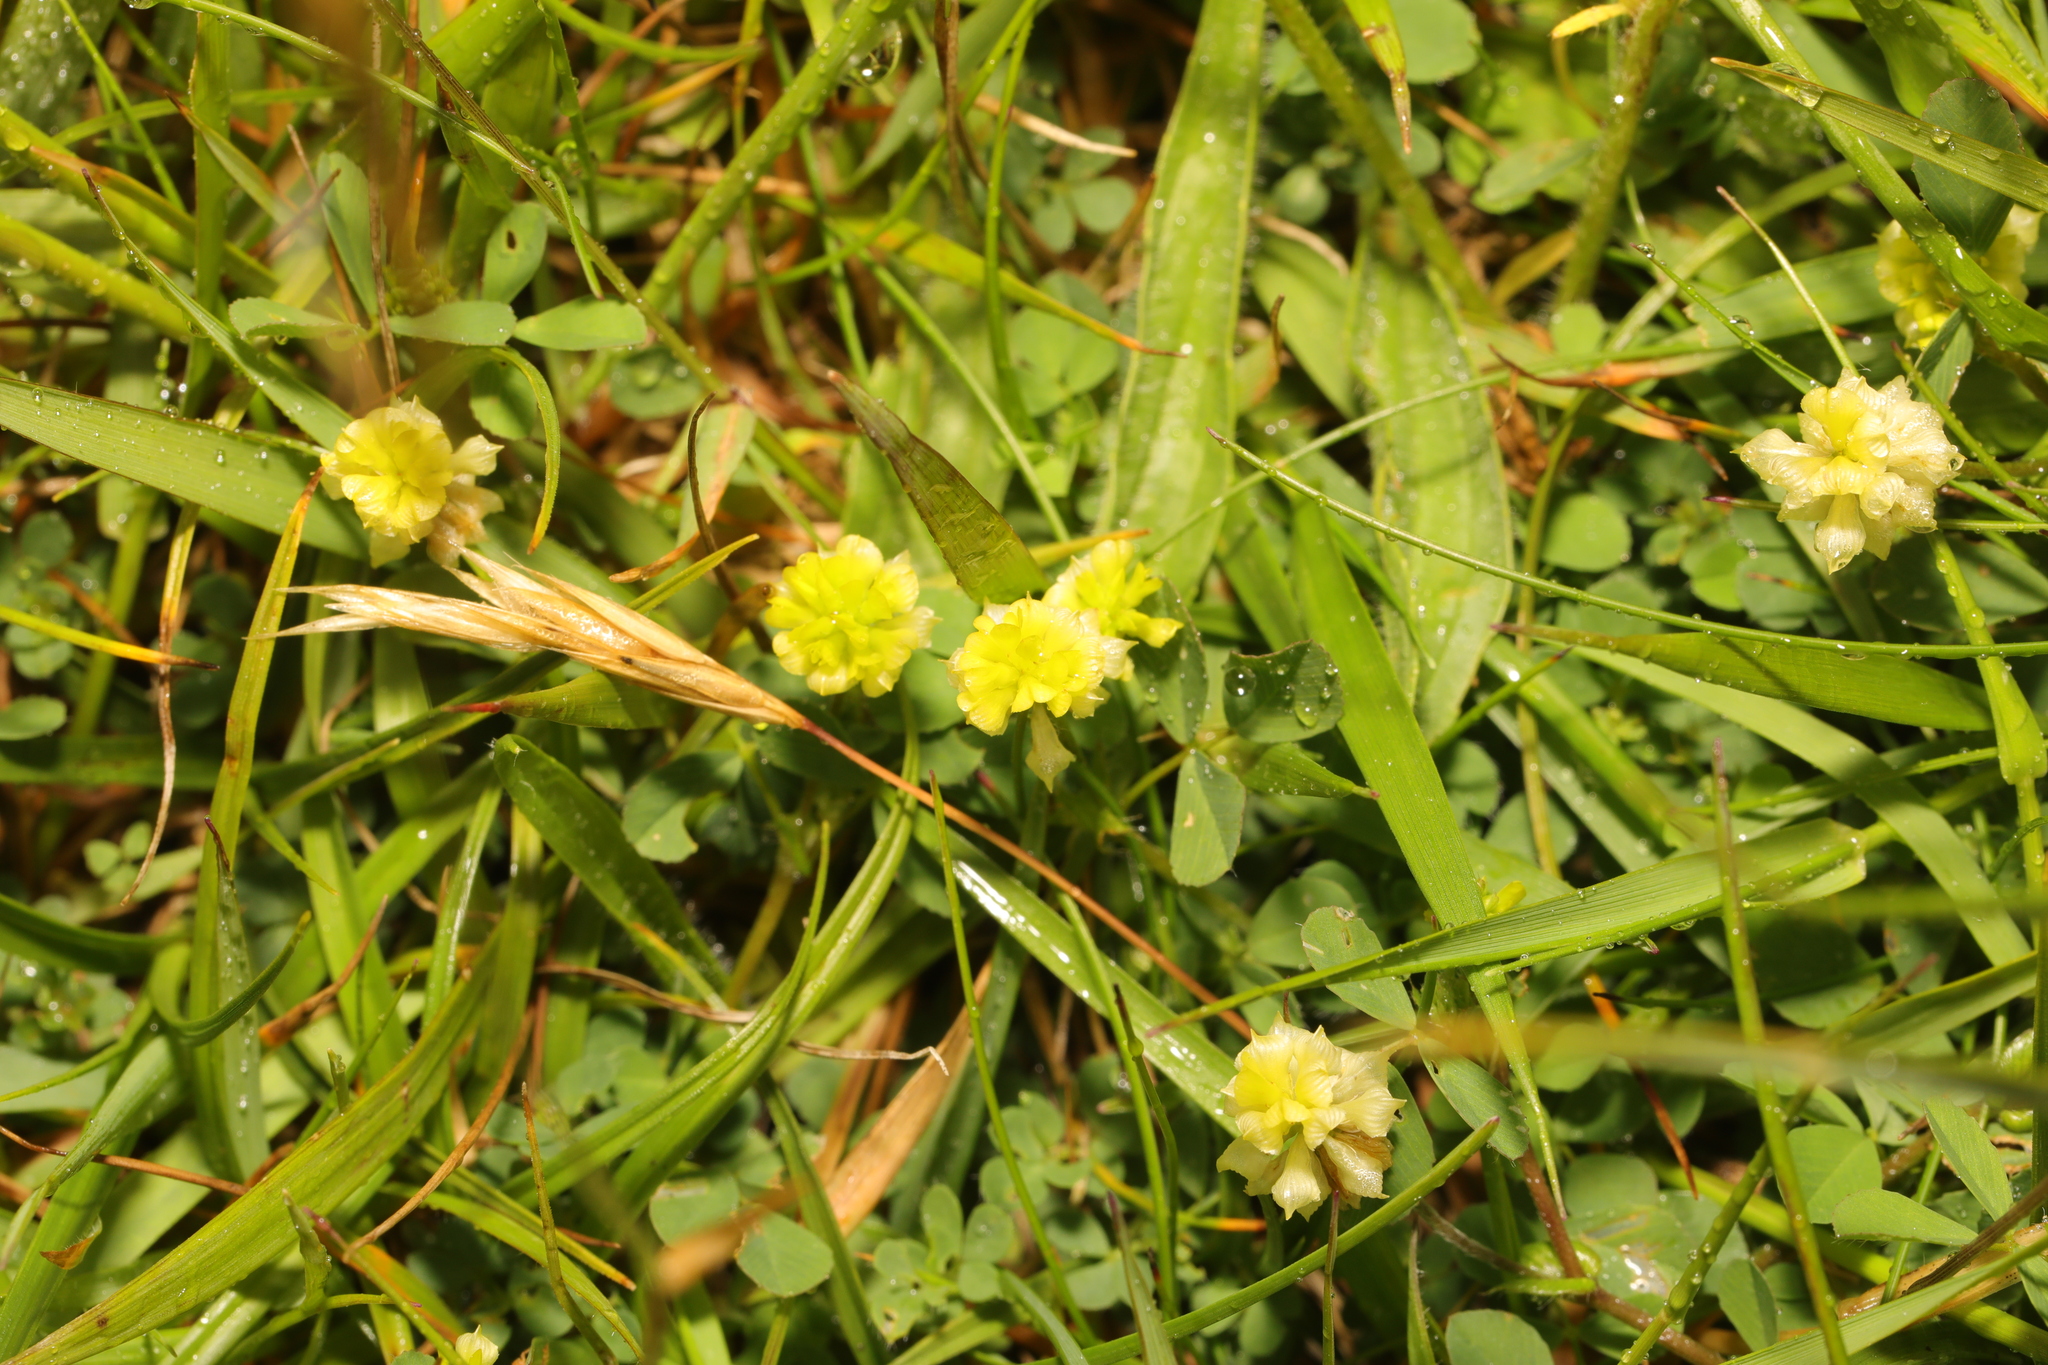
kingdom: Plantae
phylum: Tracheophyta
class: Magnoliopsida
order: Fabales
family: Fabaceae
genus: Trifolium
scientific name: Trifolium campestre
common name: Field clover
